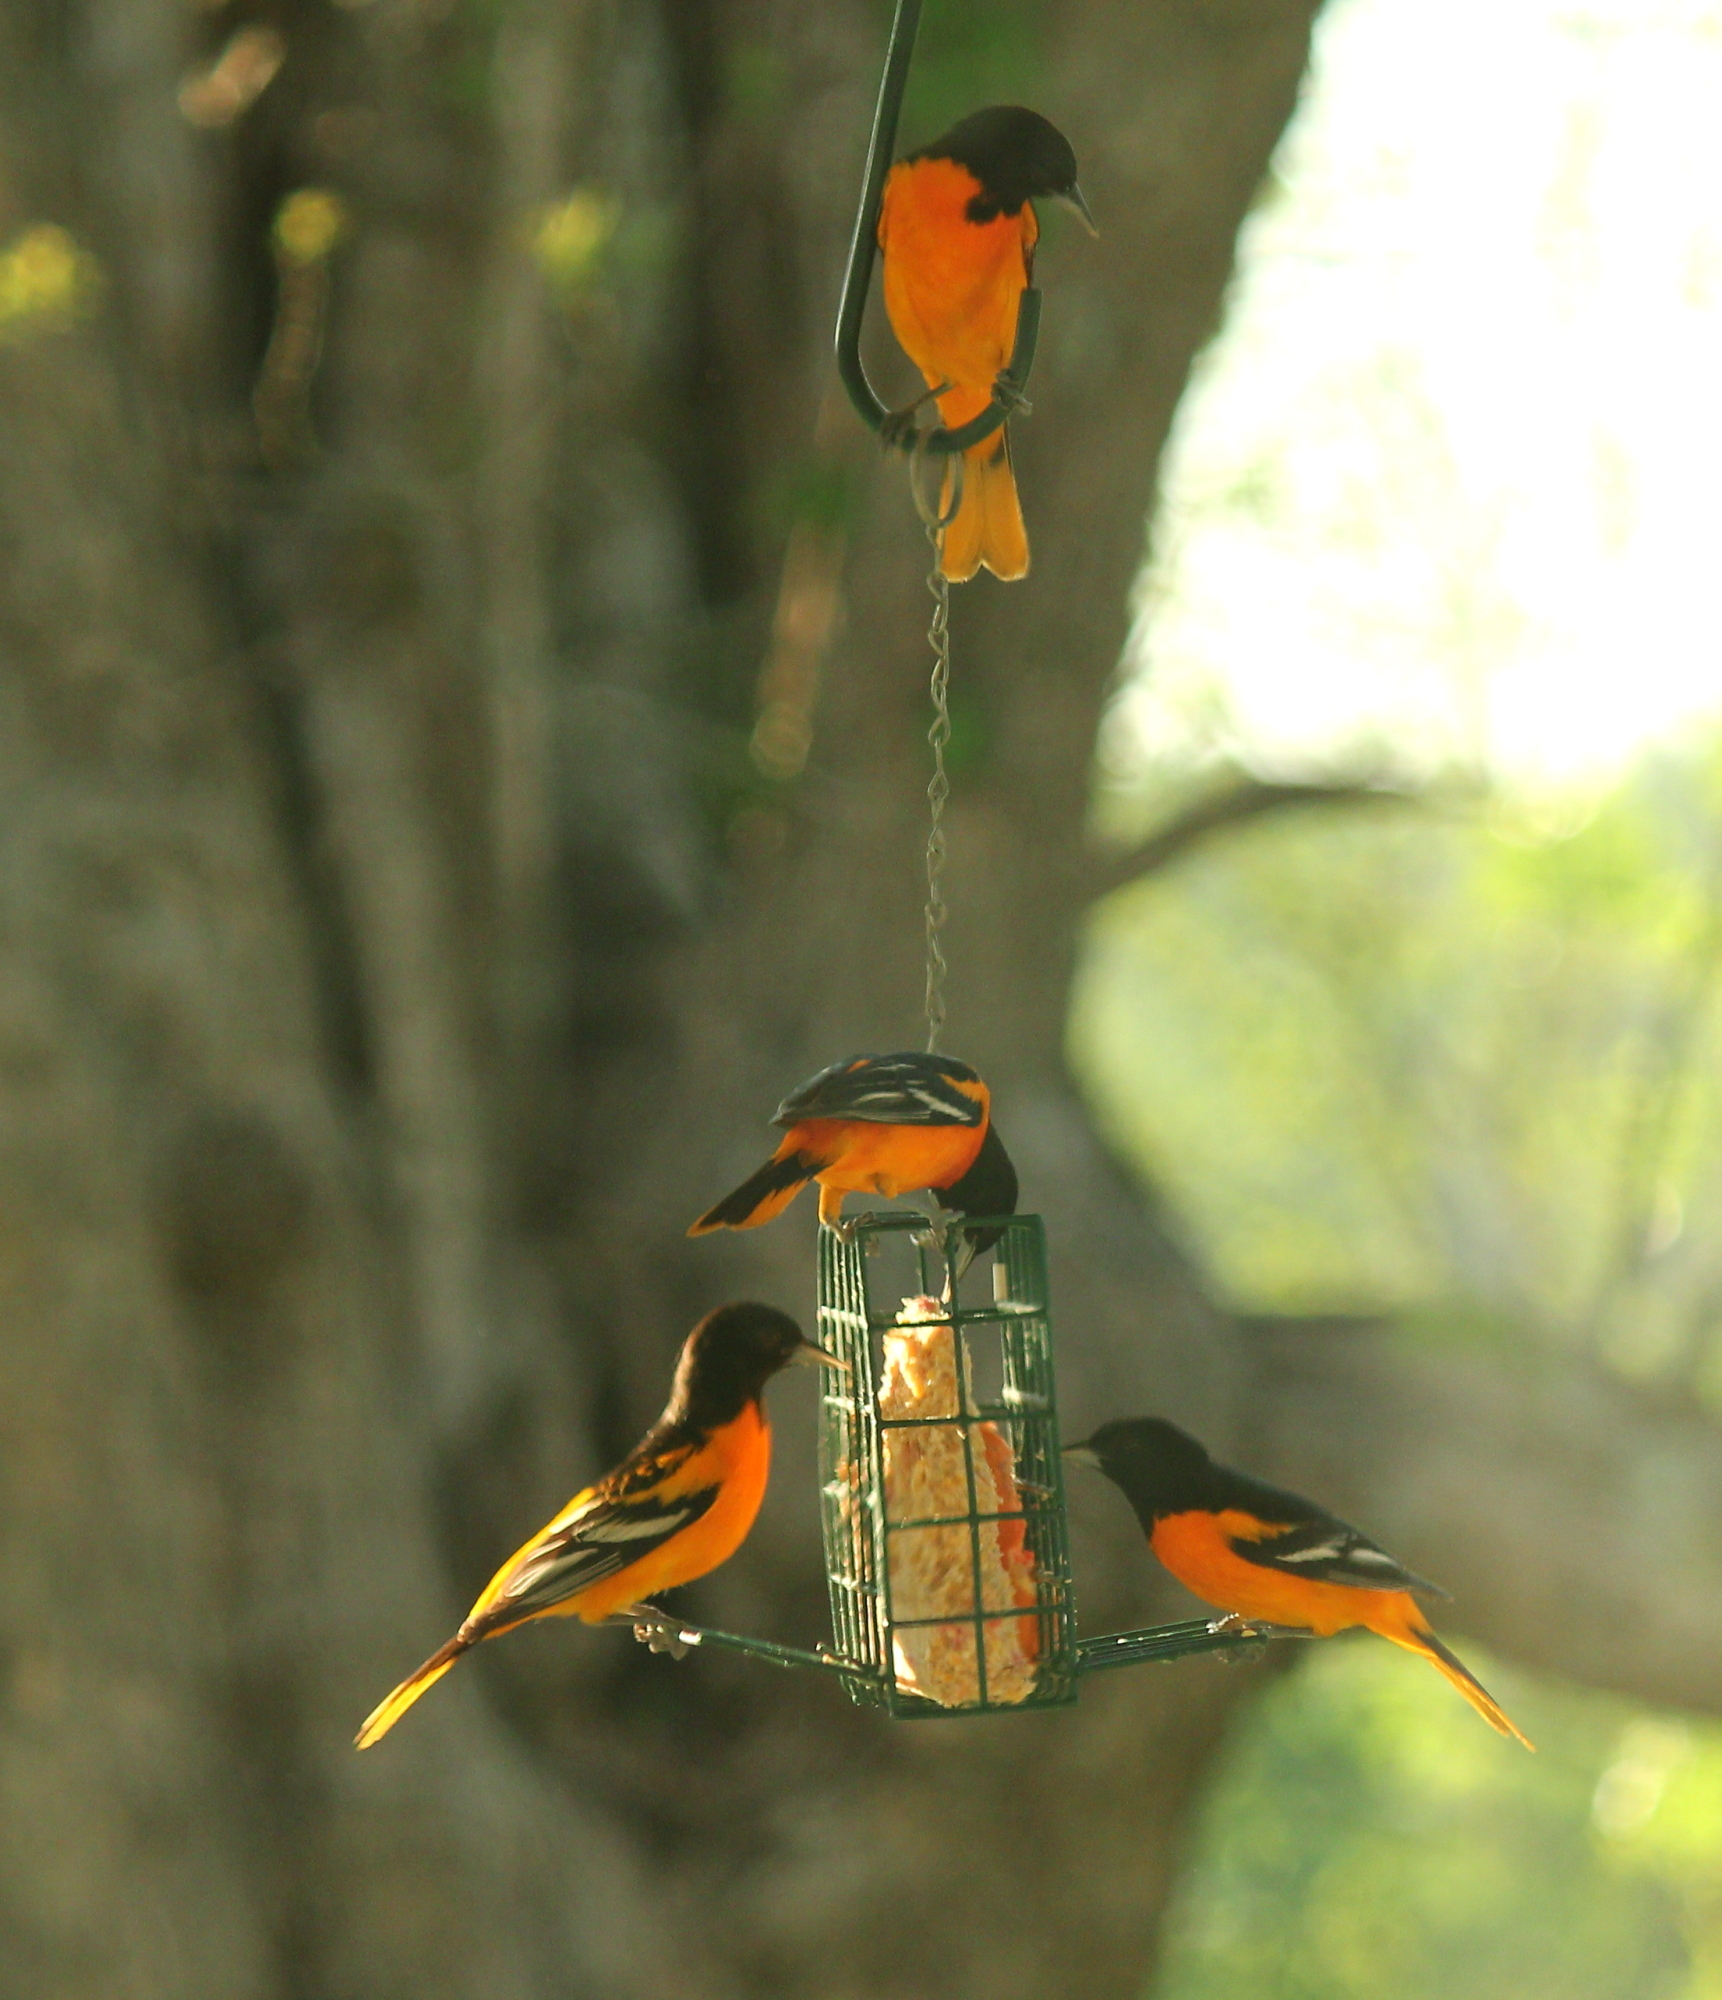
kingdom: Animalia
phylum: Chordata
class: Aves
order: Passeriformes
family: Icteridae
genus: Icterus
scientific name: Icterus galbula
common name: Baltimore oriole
